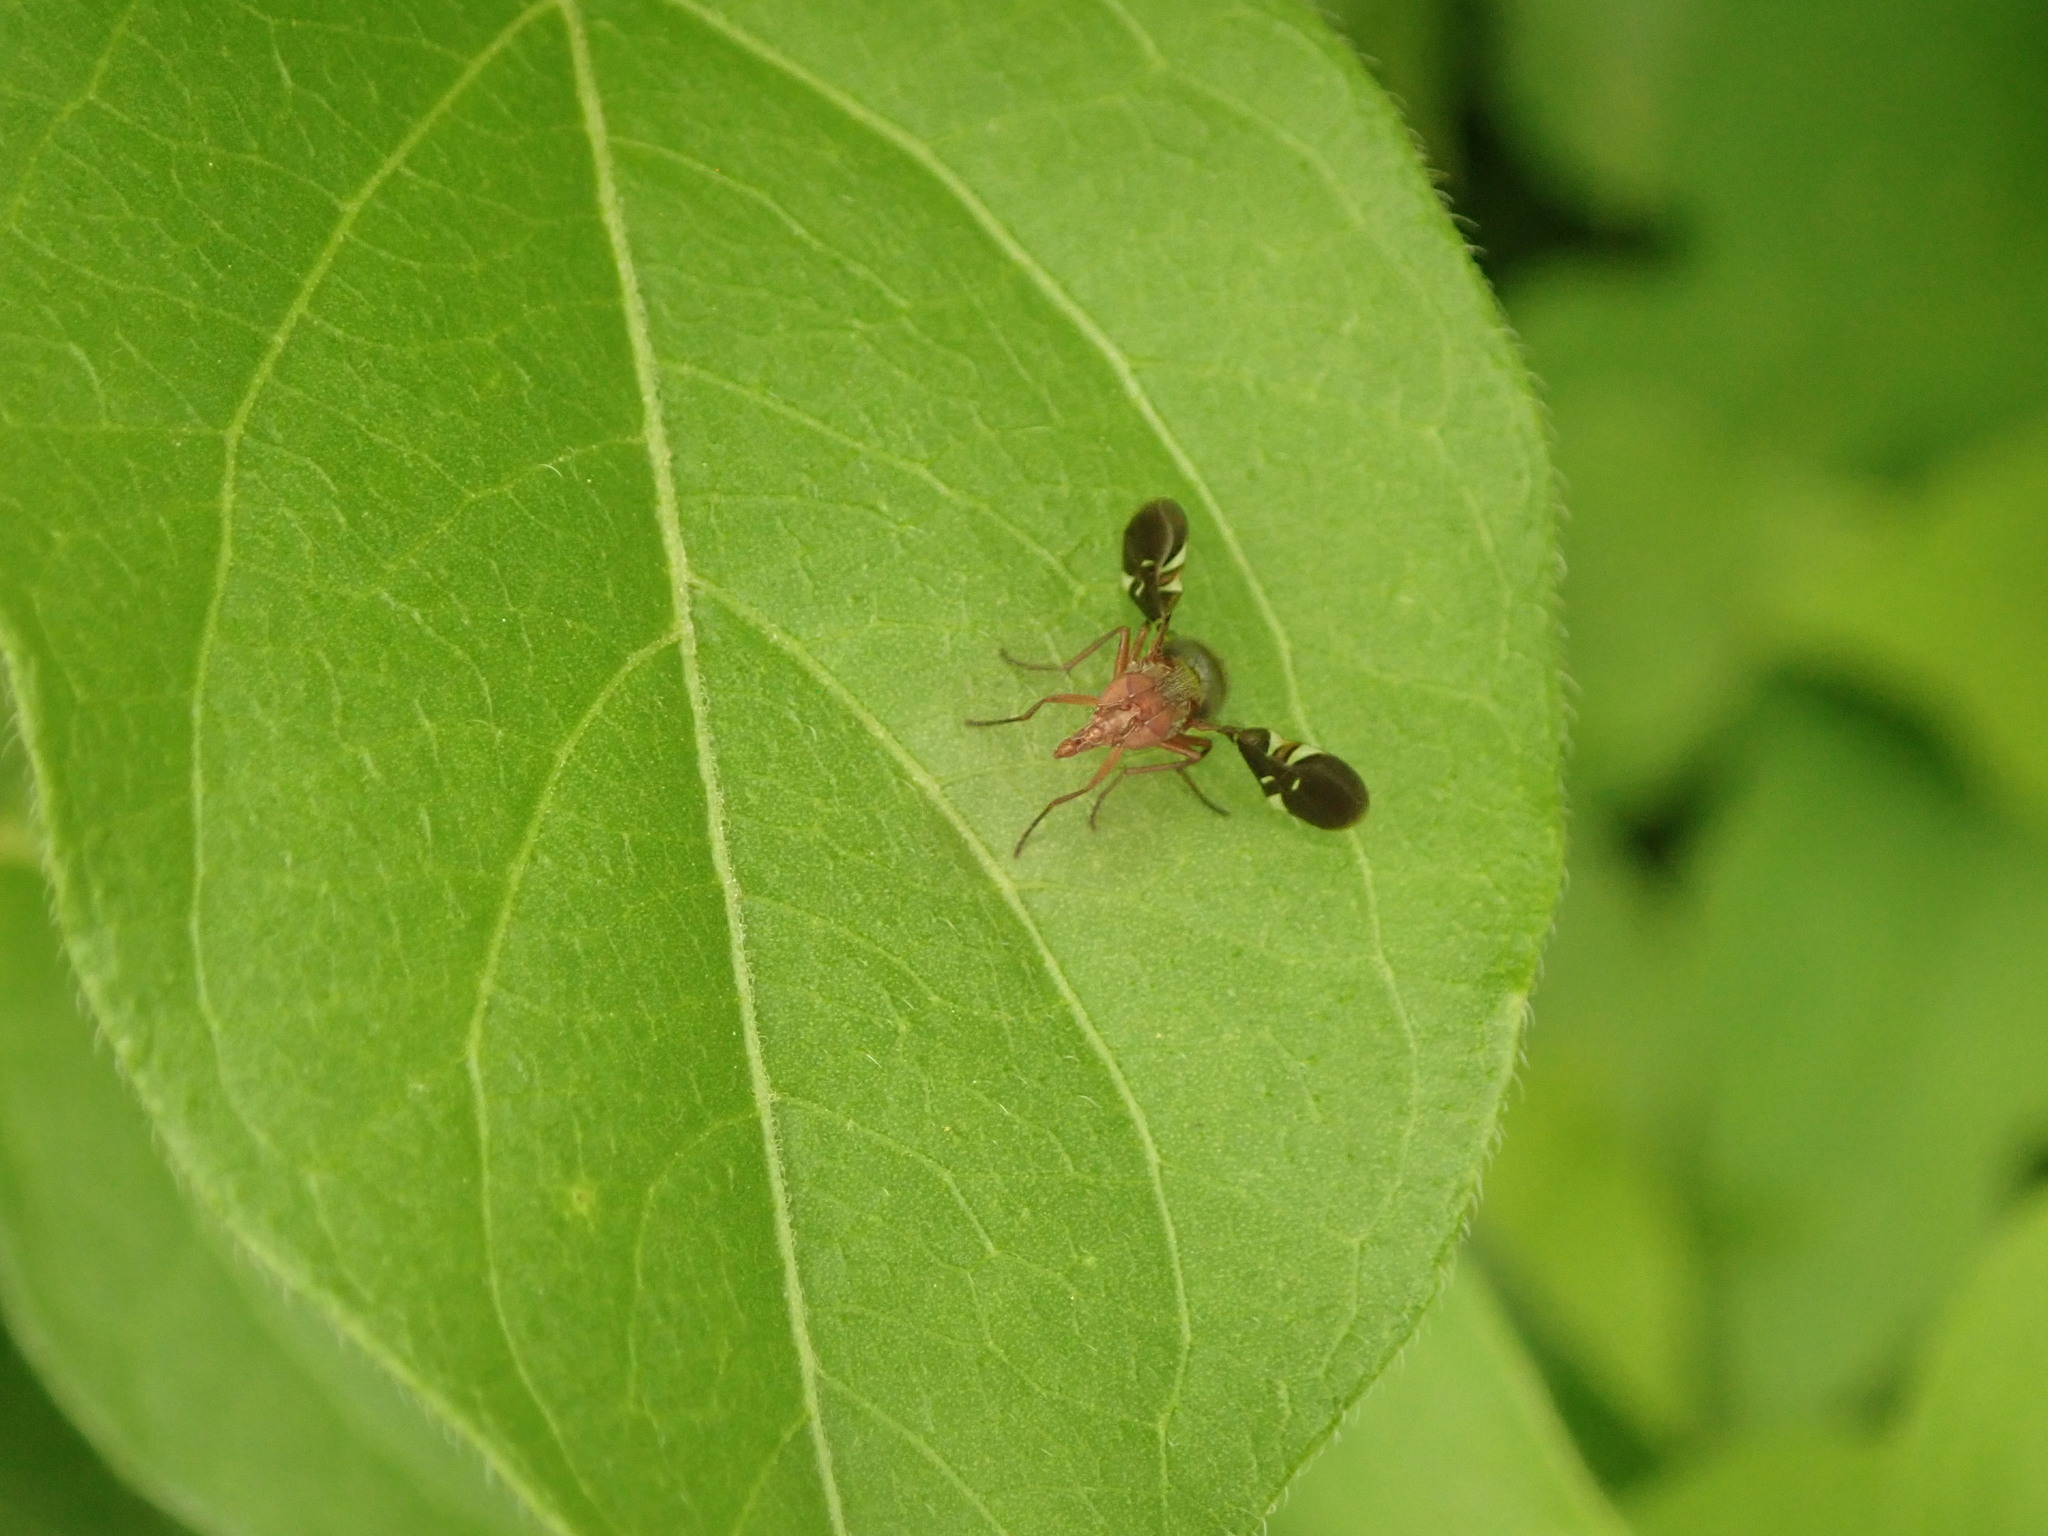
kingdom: Animalia
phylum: Arthropoda
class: Insecta
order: Diptera
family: Ulidiidae
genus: Delphinia
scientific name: Delphinia picta
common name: Common picture-winged fly
